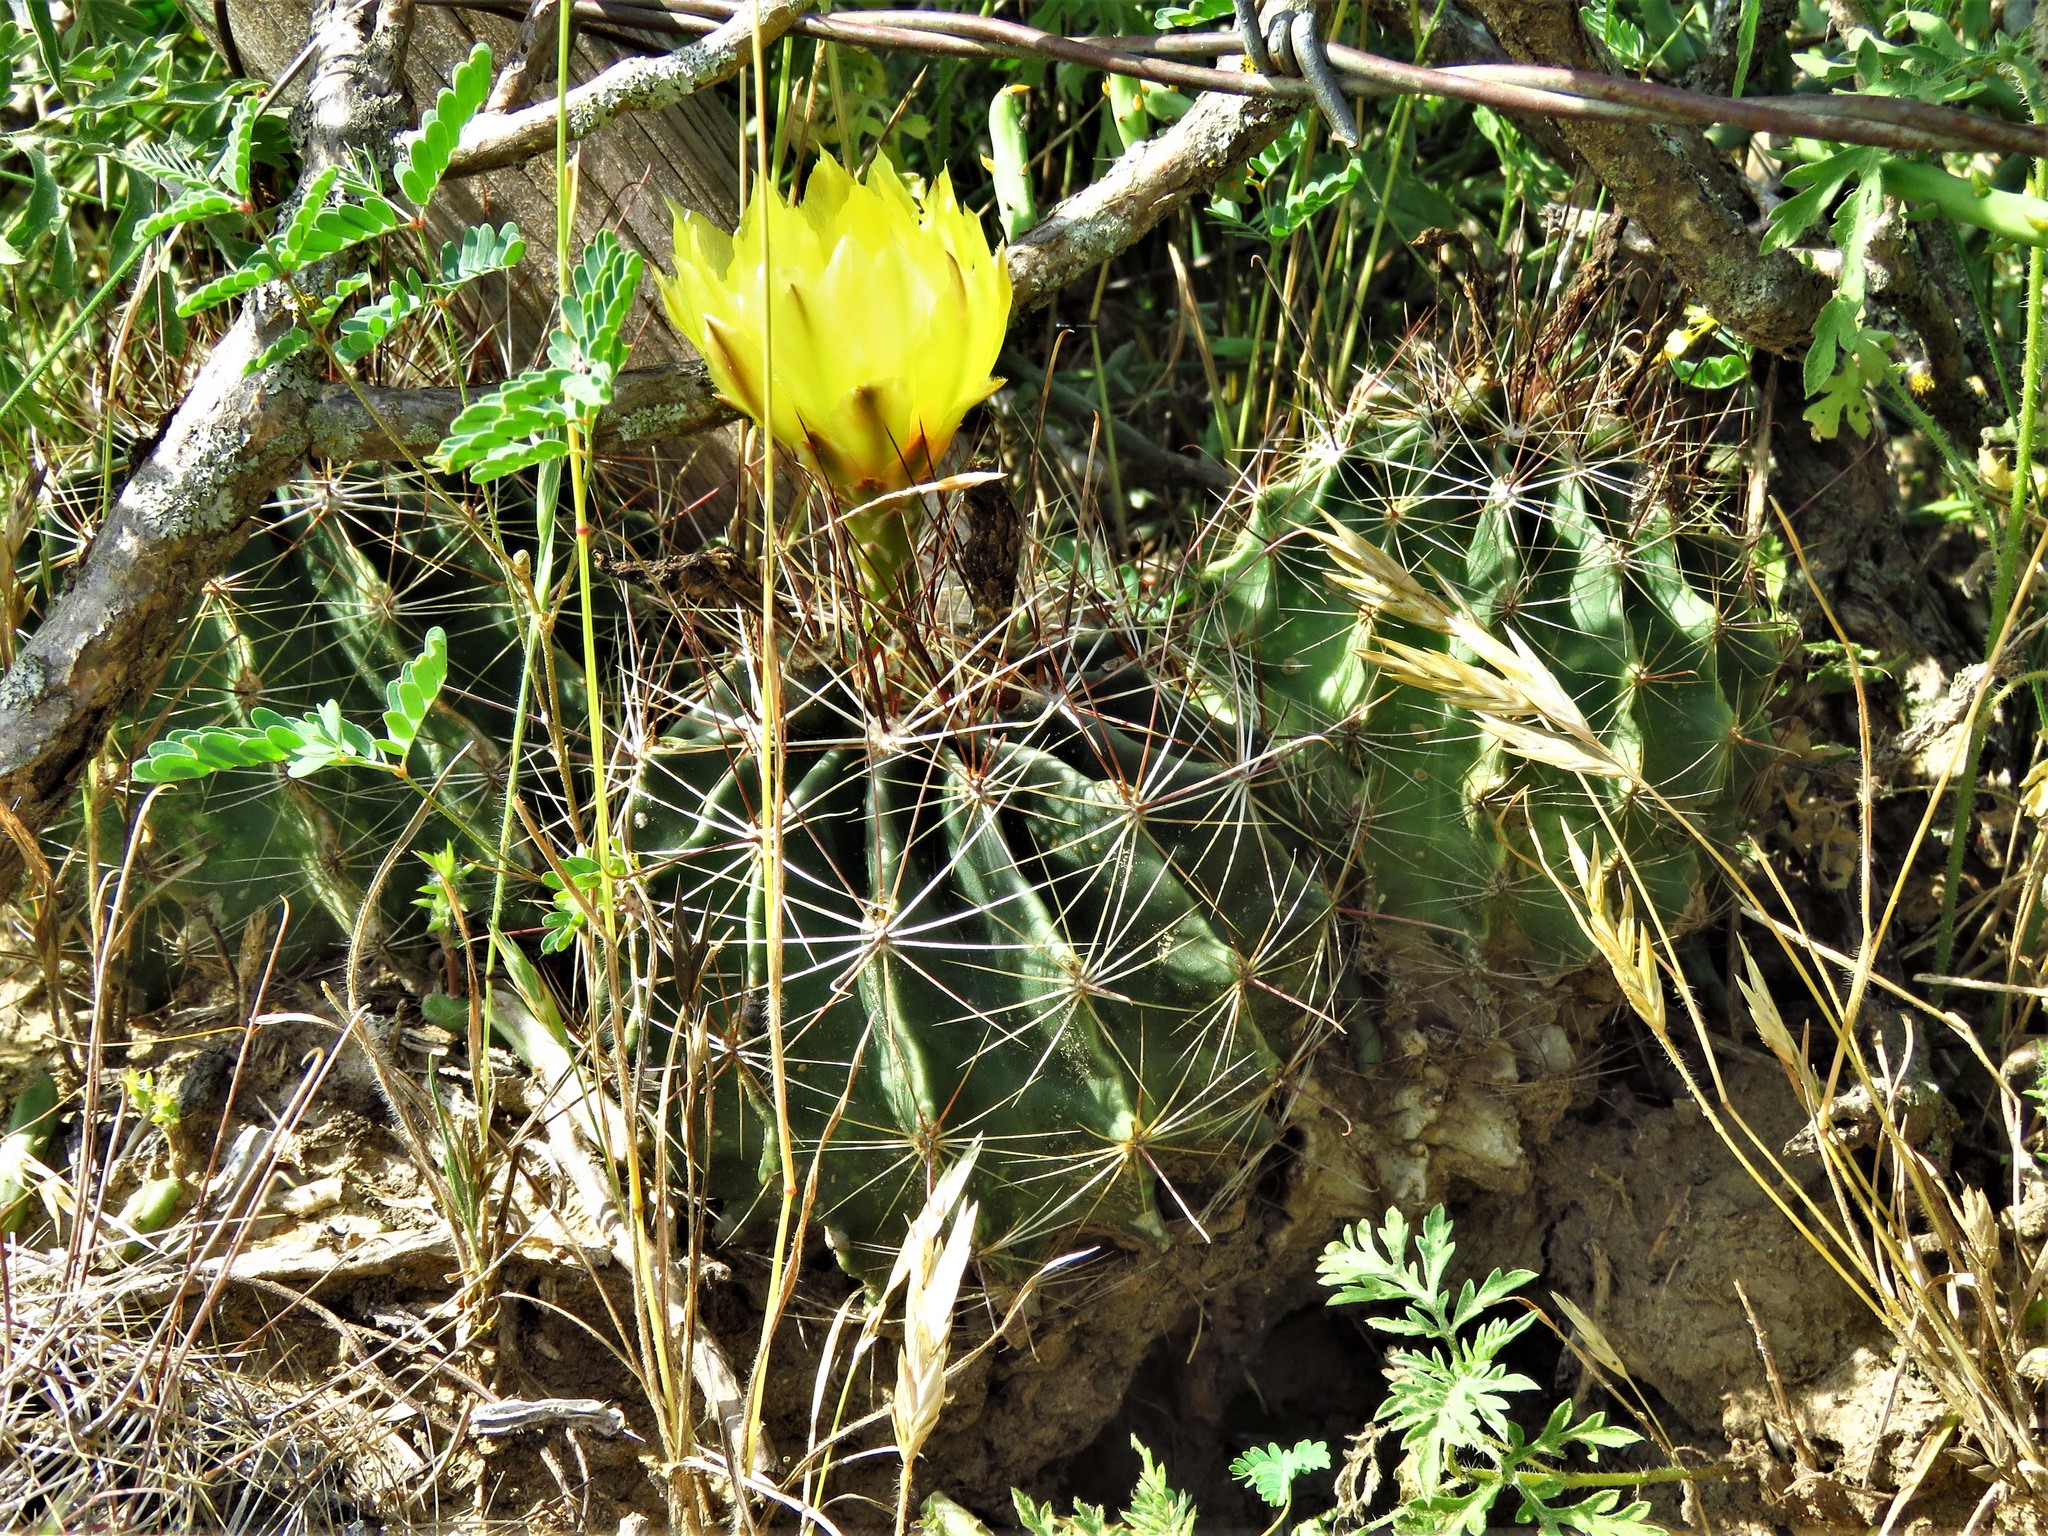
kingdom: Plantae
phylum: Tracheophyta
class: Magnoliopsida
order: Caryophyllales
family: Cactaceae
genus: Thelocactus
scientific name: Thelocactus setispinus
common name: Miniature barrel cactus
